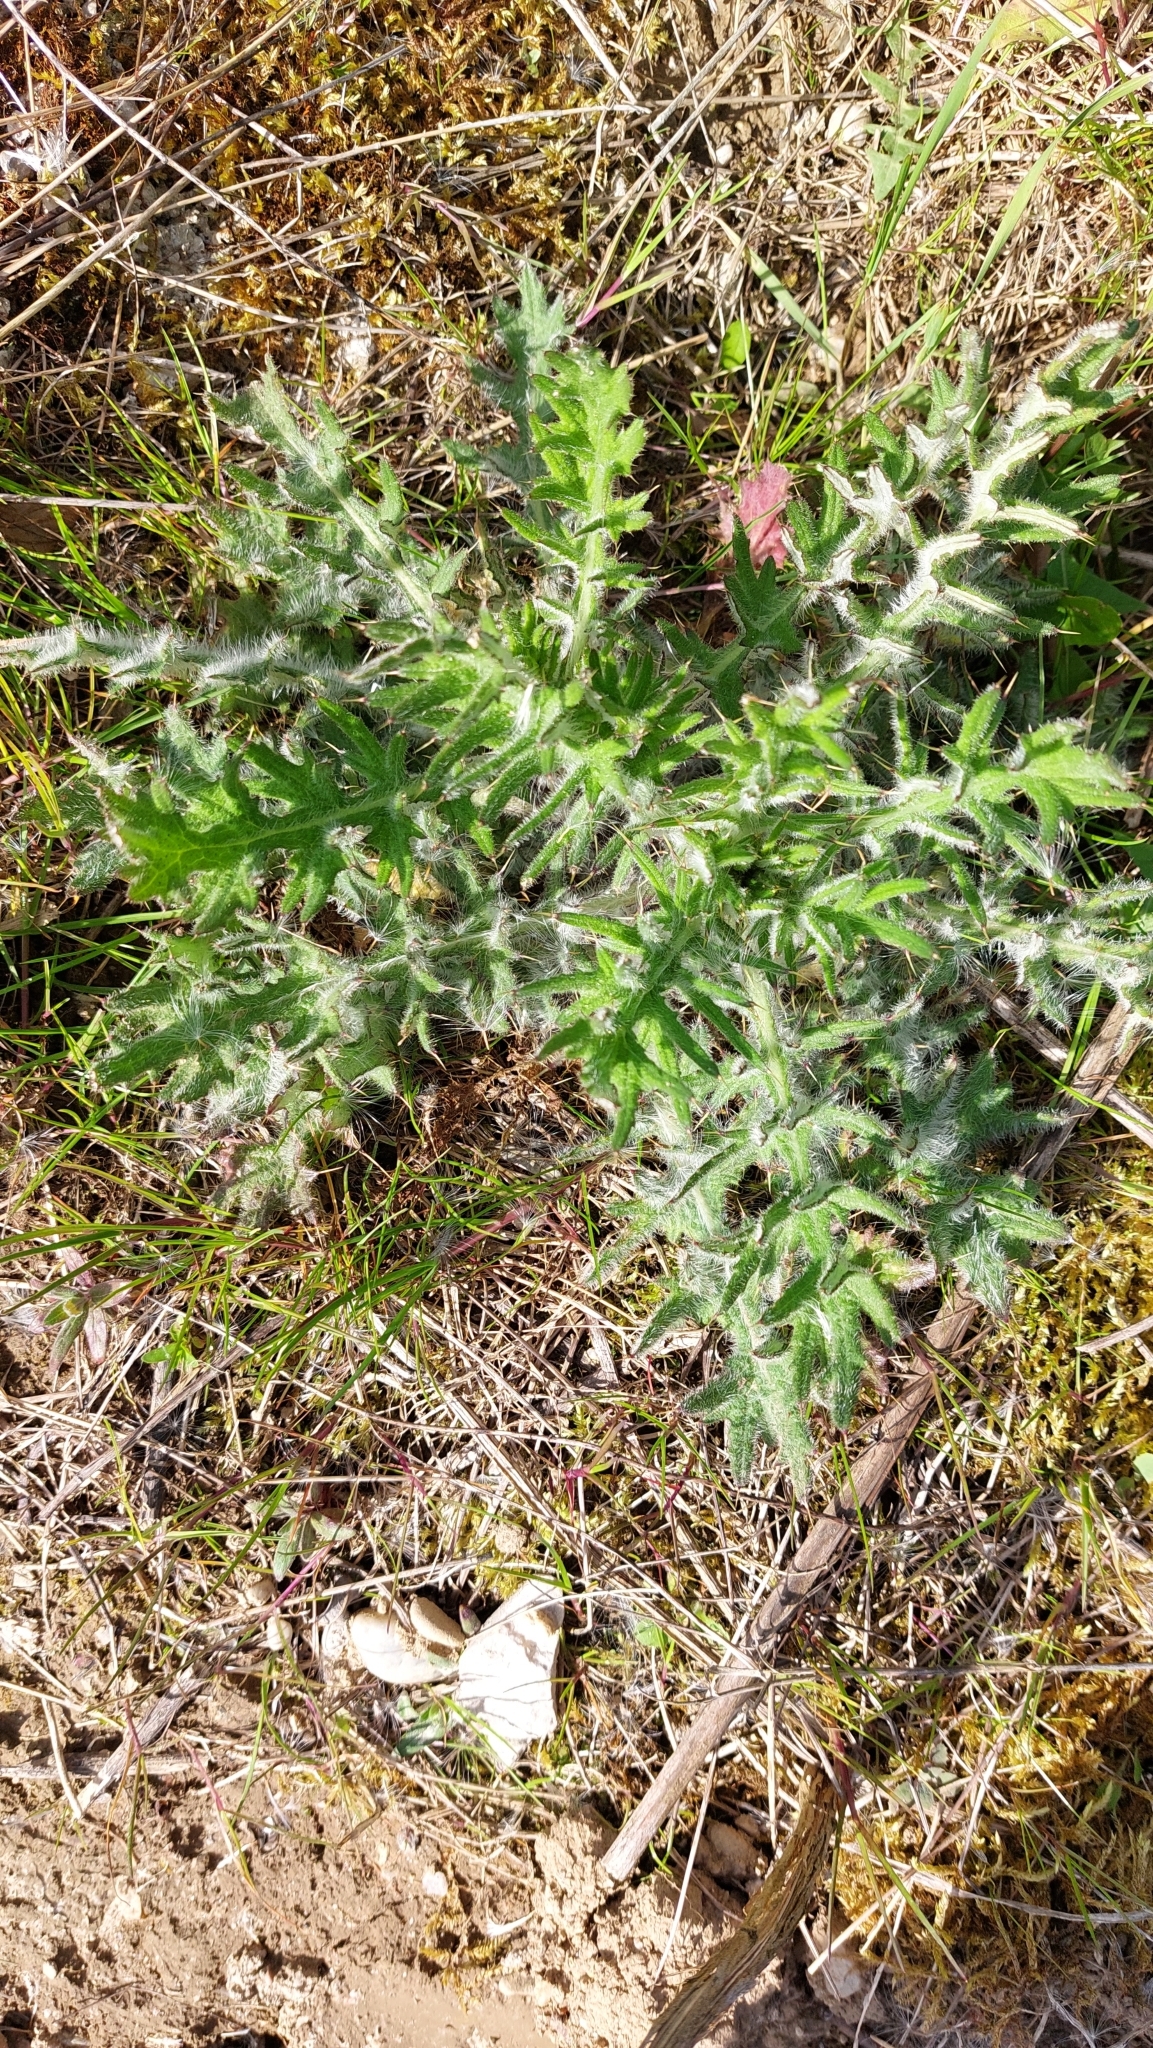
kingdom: Plantae
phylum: Tracheophyta
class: Magnoliopsida
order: Asterales
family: Asteraceae
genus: Cirsium
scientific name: Cirsium vulgare
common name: Bull thistle
